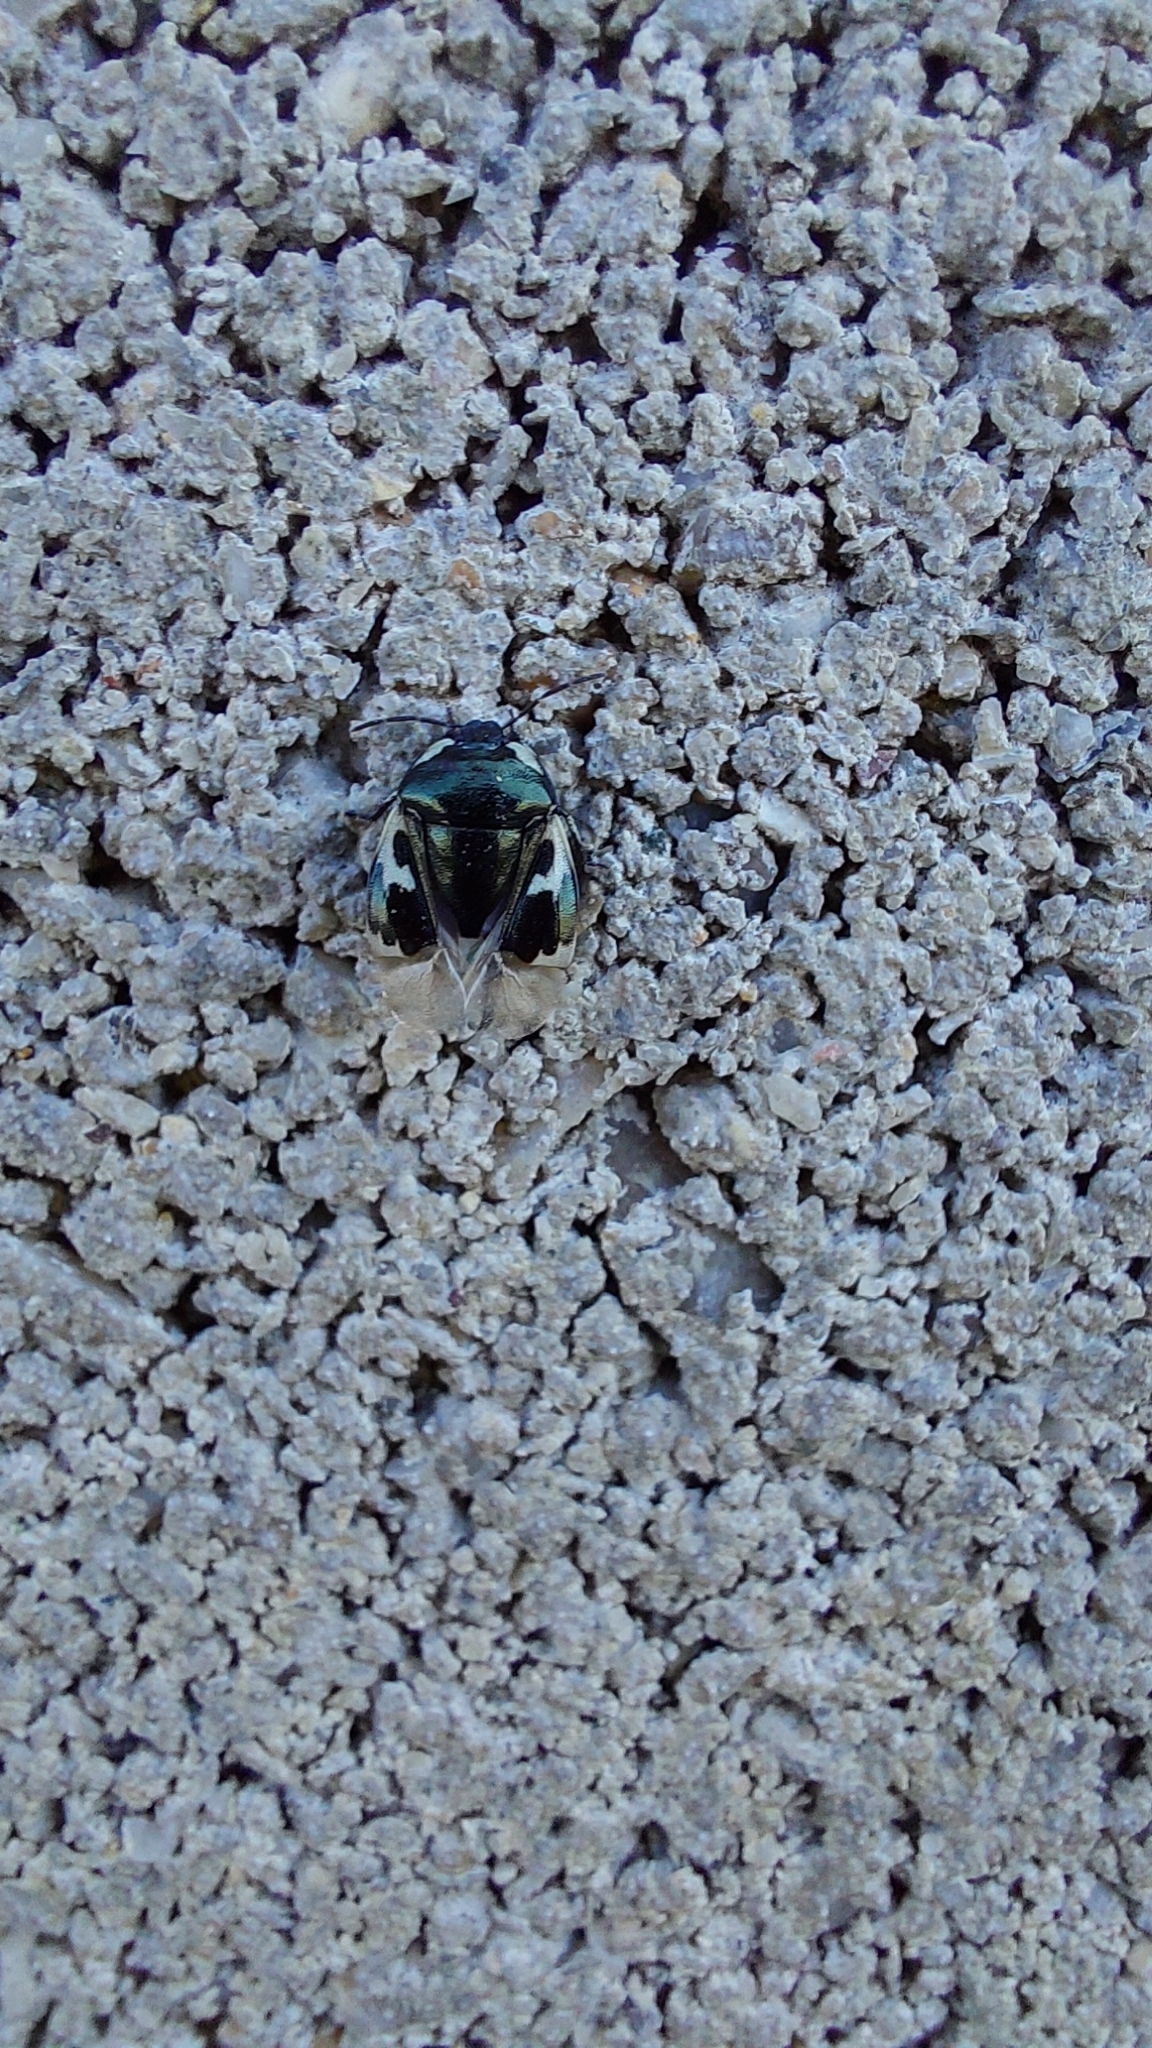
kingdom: Animalia
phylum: Arthropoda
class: Insecta
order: Hemiptera
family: Cydnidae
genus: Tritomegas
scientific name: Tritomegas bicolor
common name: Pied shieldbug
